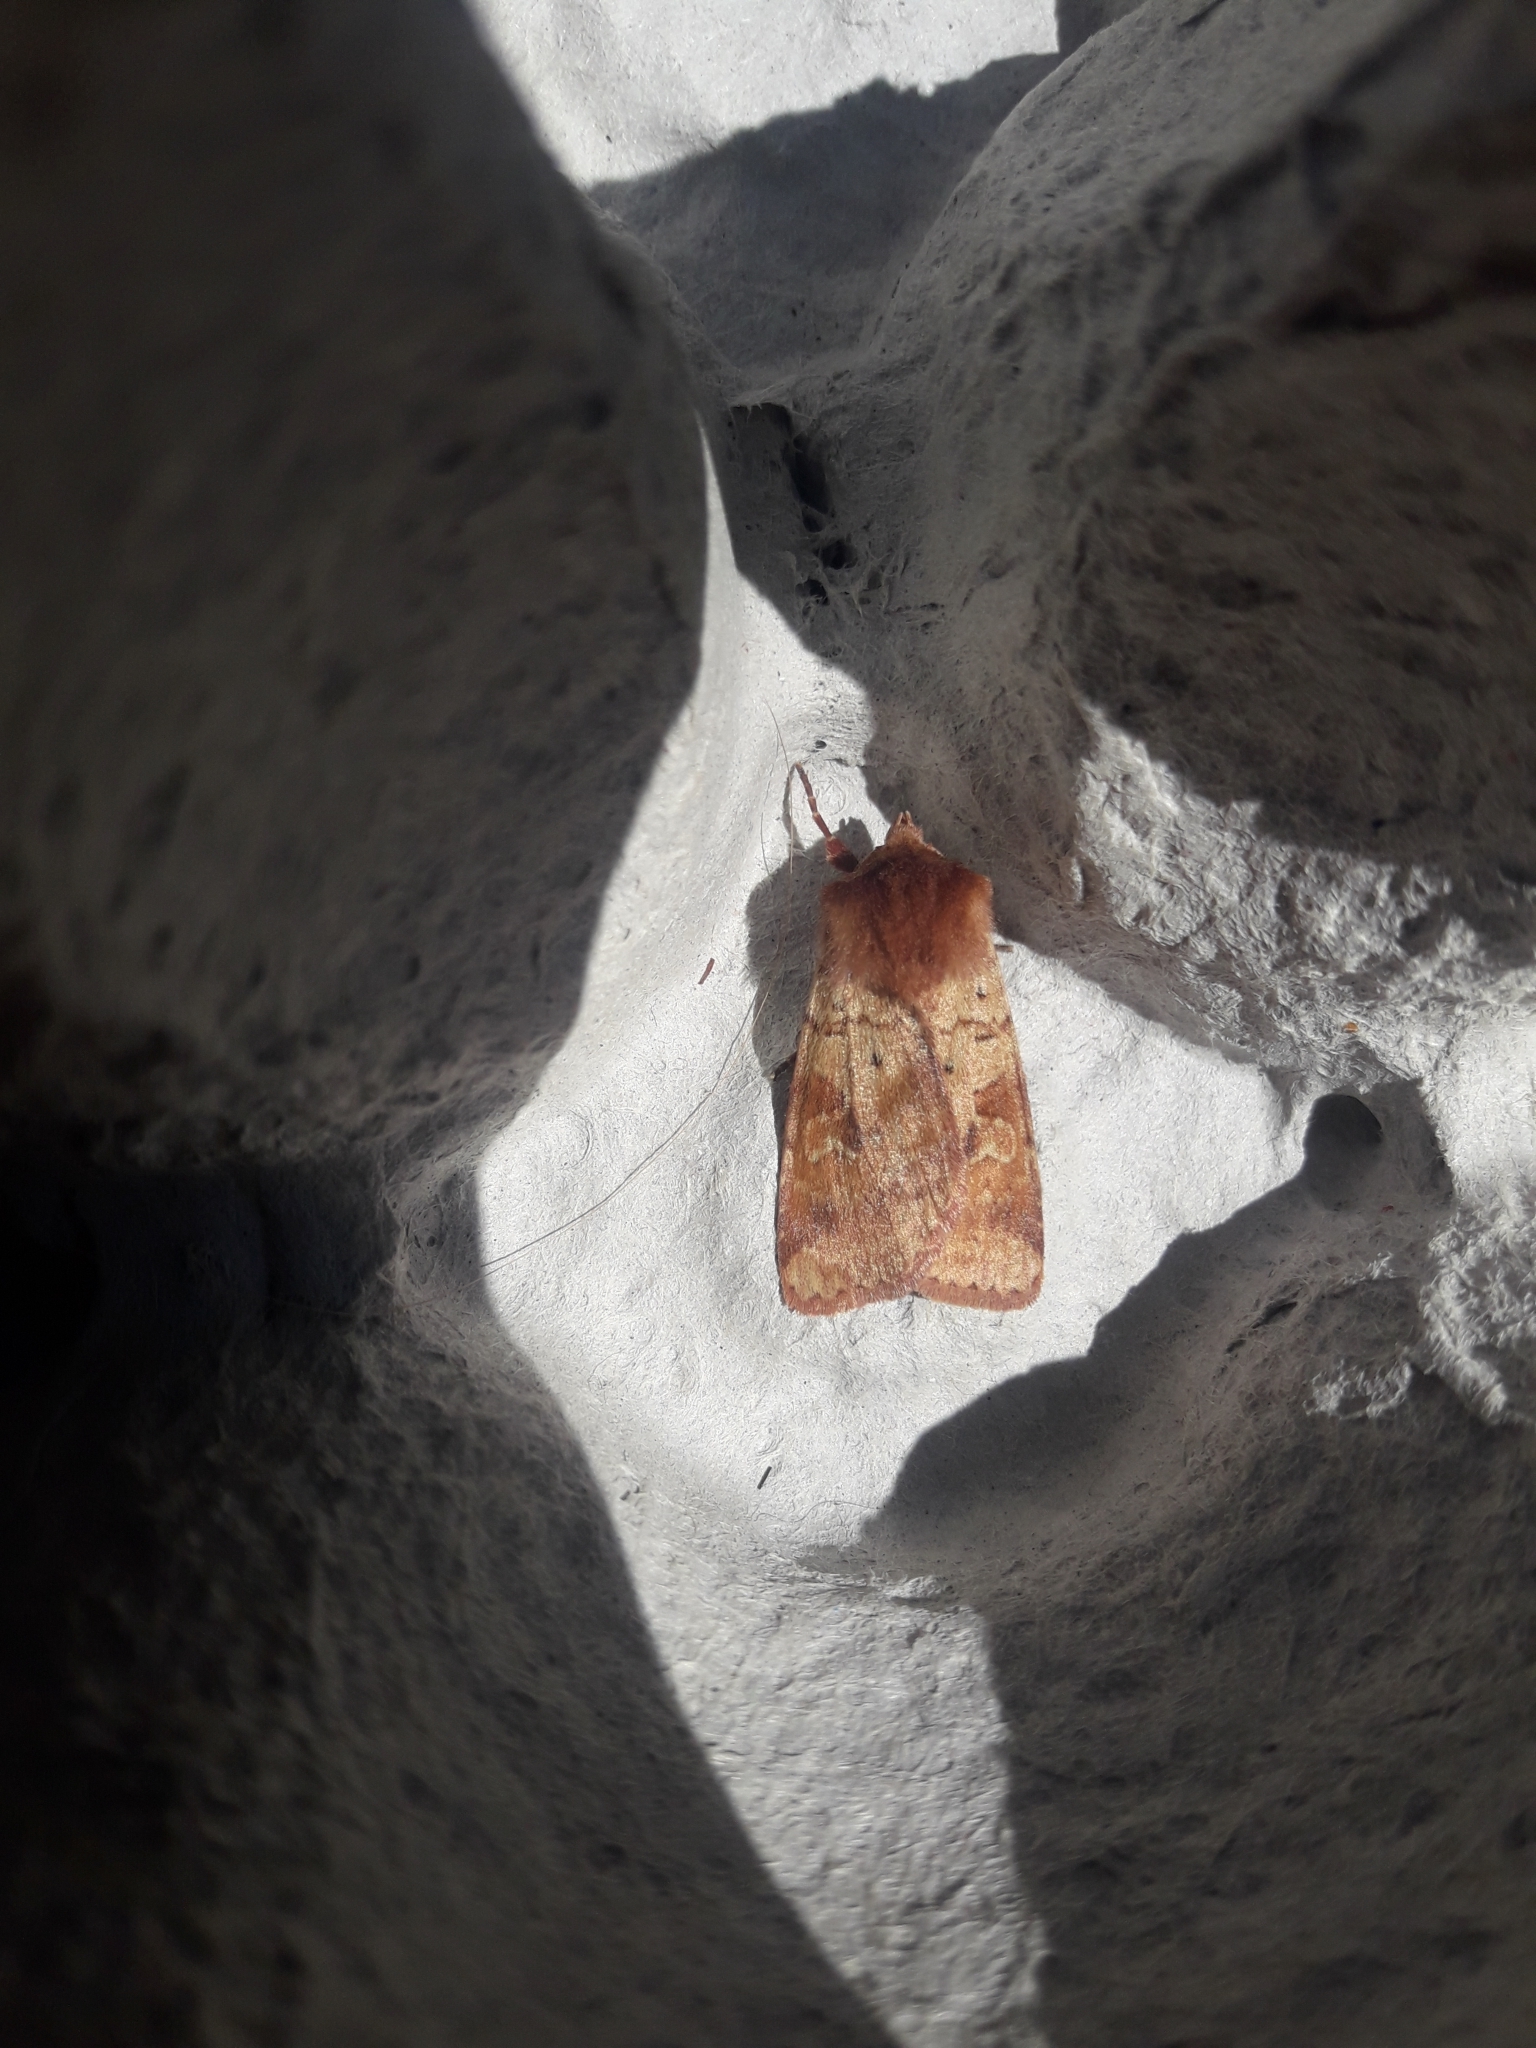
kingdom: Animalia
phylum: Arthropoda
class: Insecta
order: Lepidoptera
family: Noctuidae
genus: Diarsia
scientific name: Diarsia mendica
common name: Ingrailed clay
